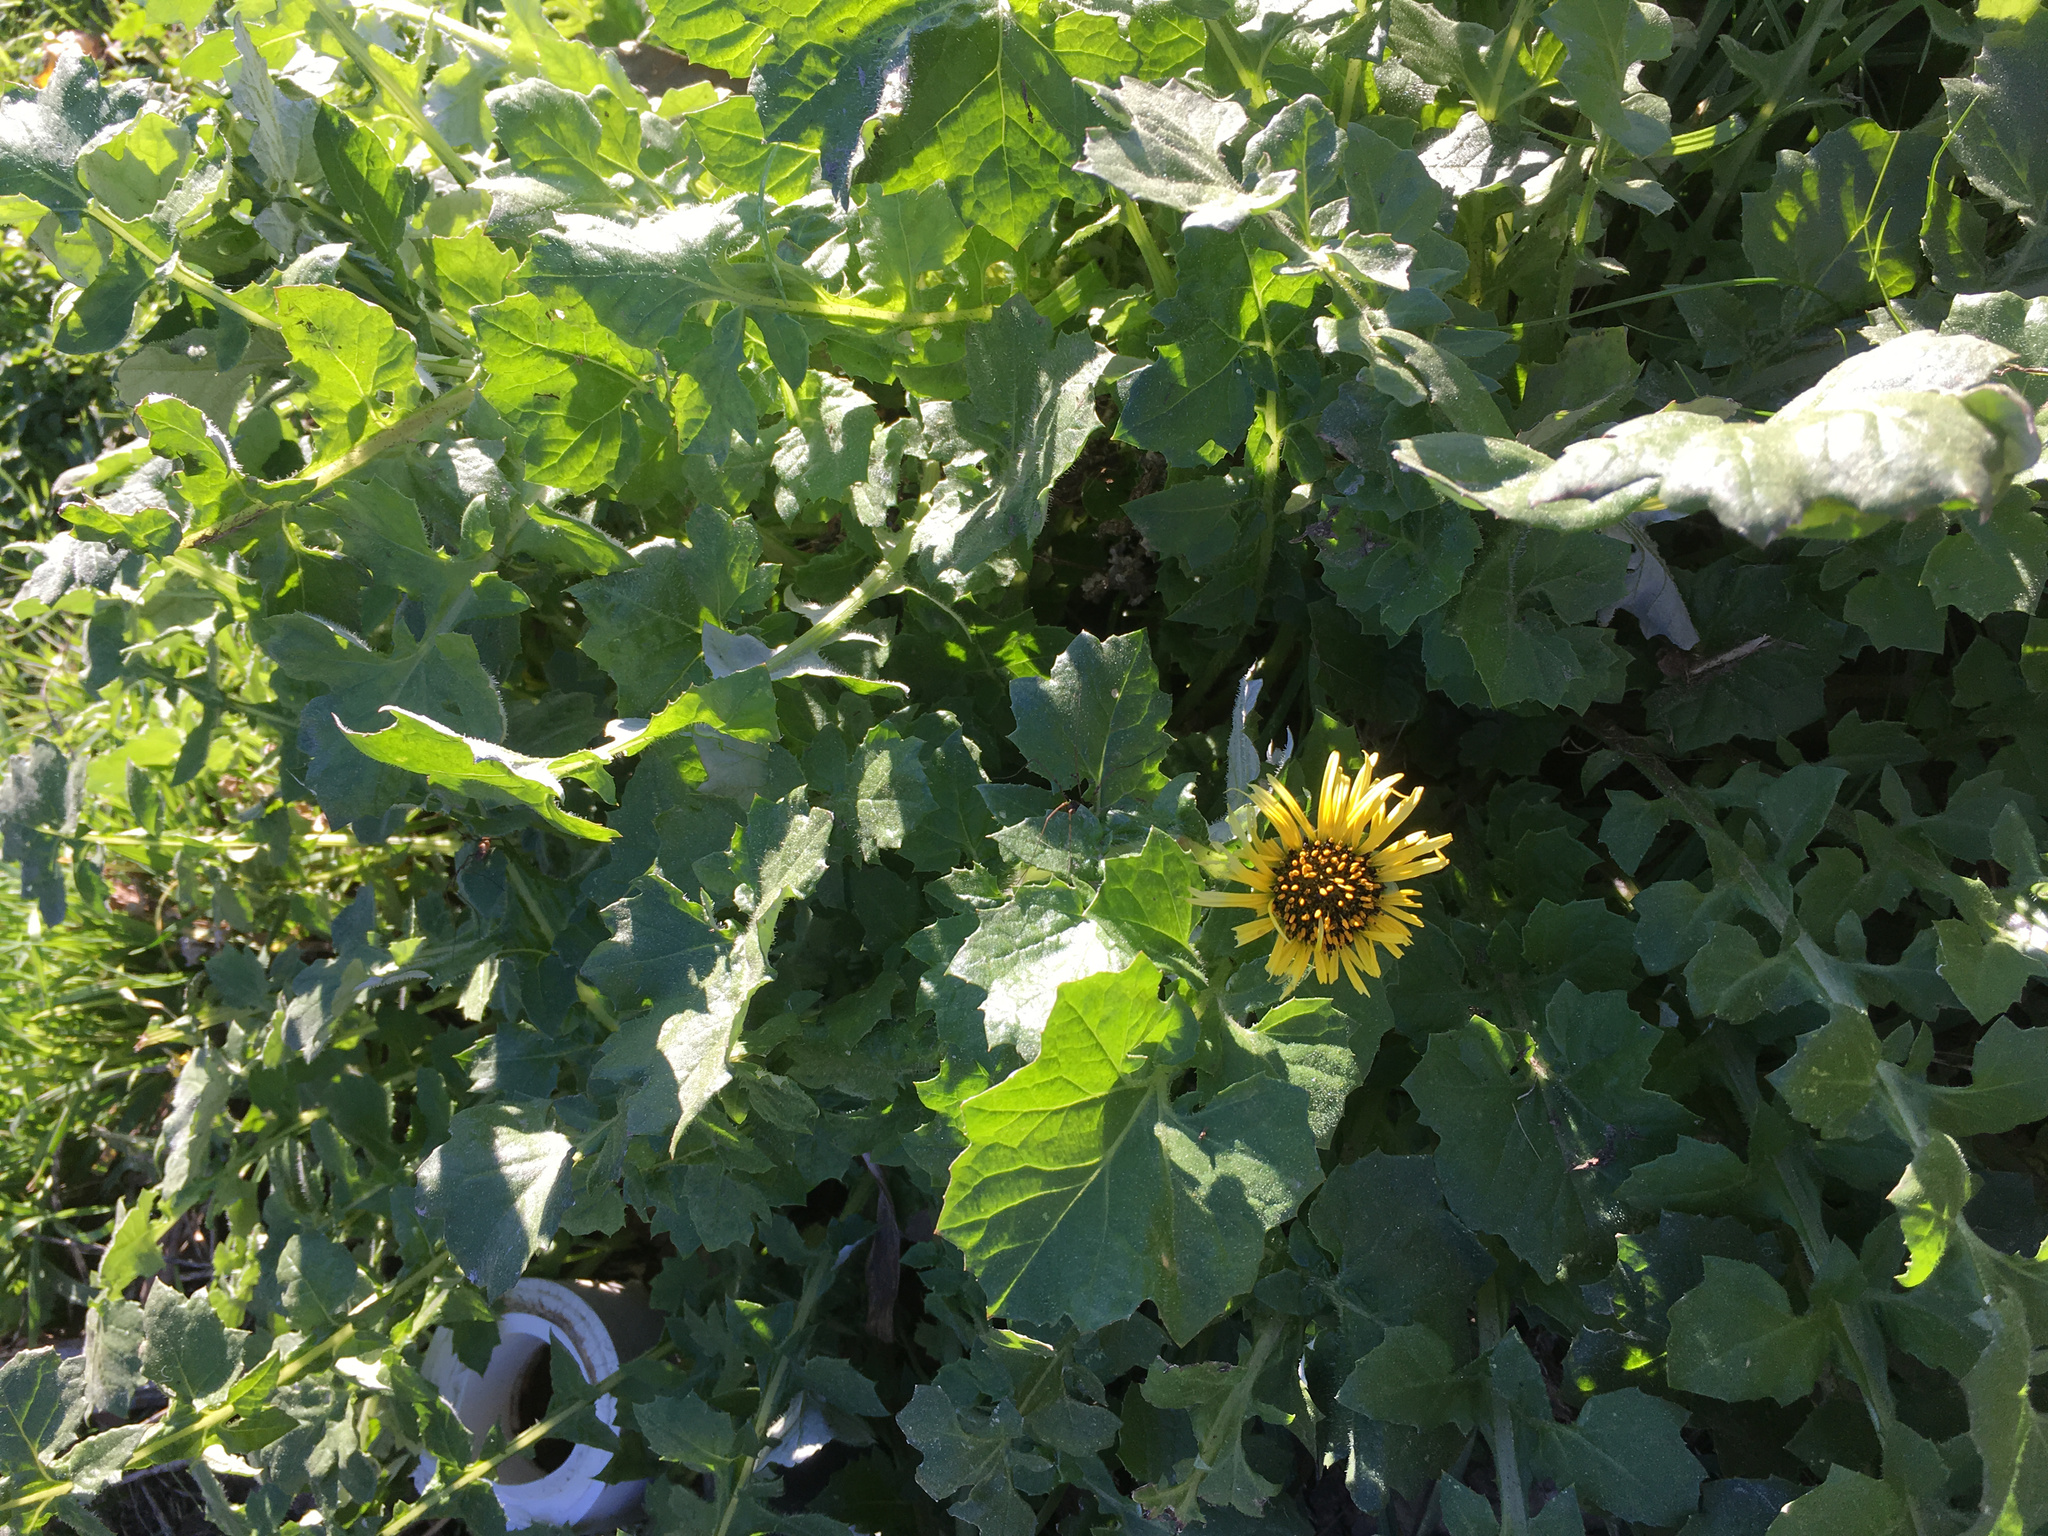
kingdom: Plantae
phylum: Tracheophyta
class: Magnoliopsida
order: Asterales
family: Asteraceae
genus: Arctotheca
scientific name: Arctotheca calendula
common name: Capeweed
